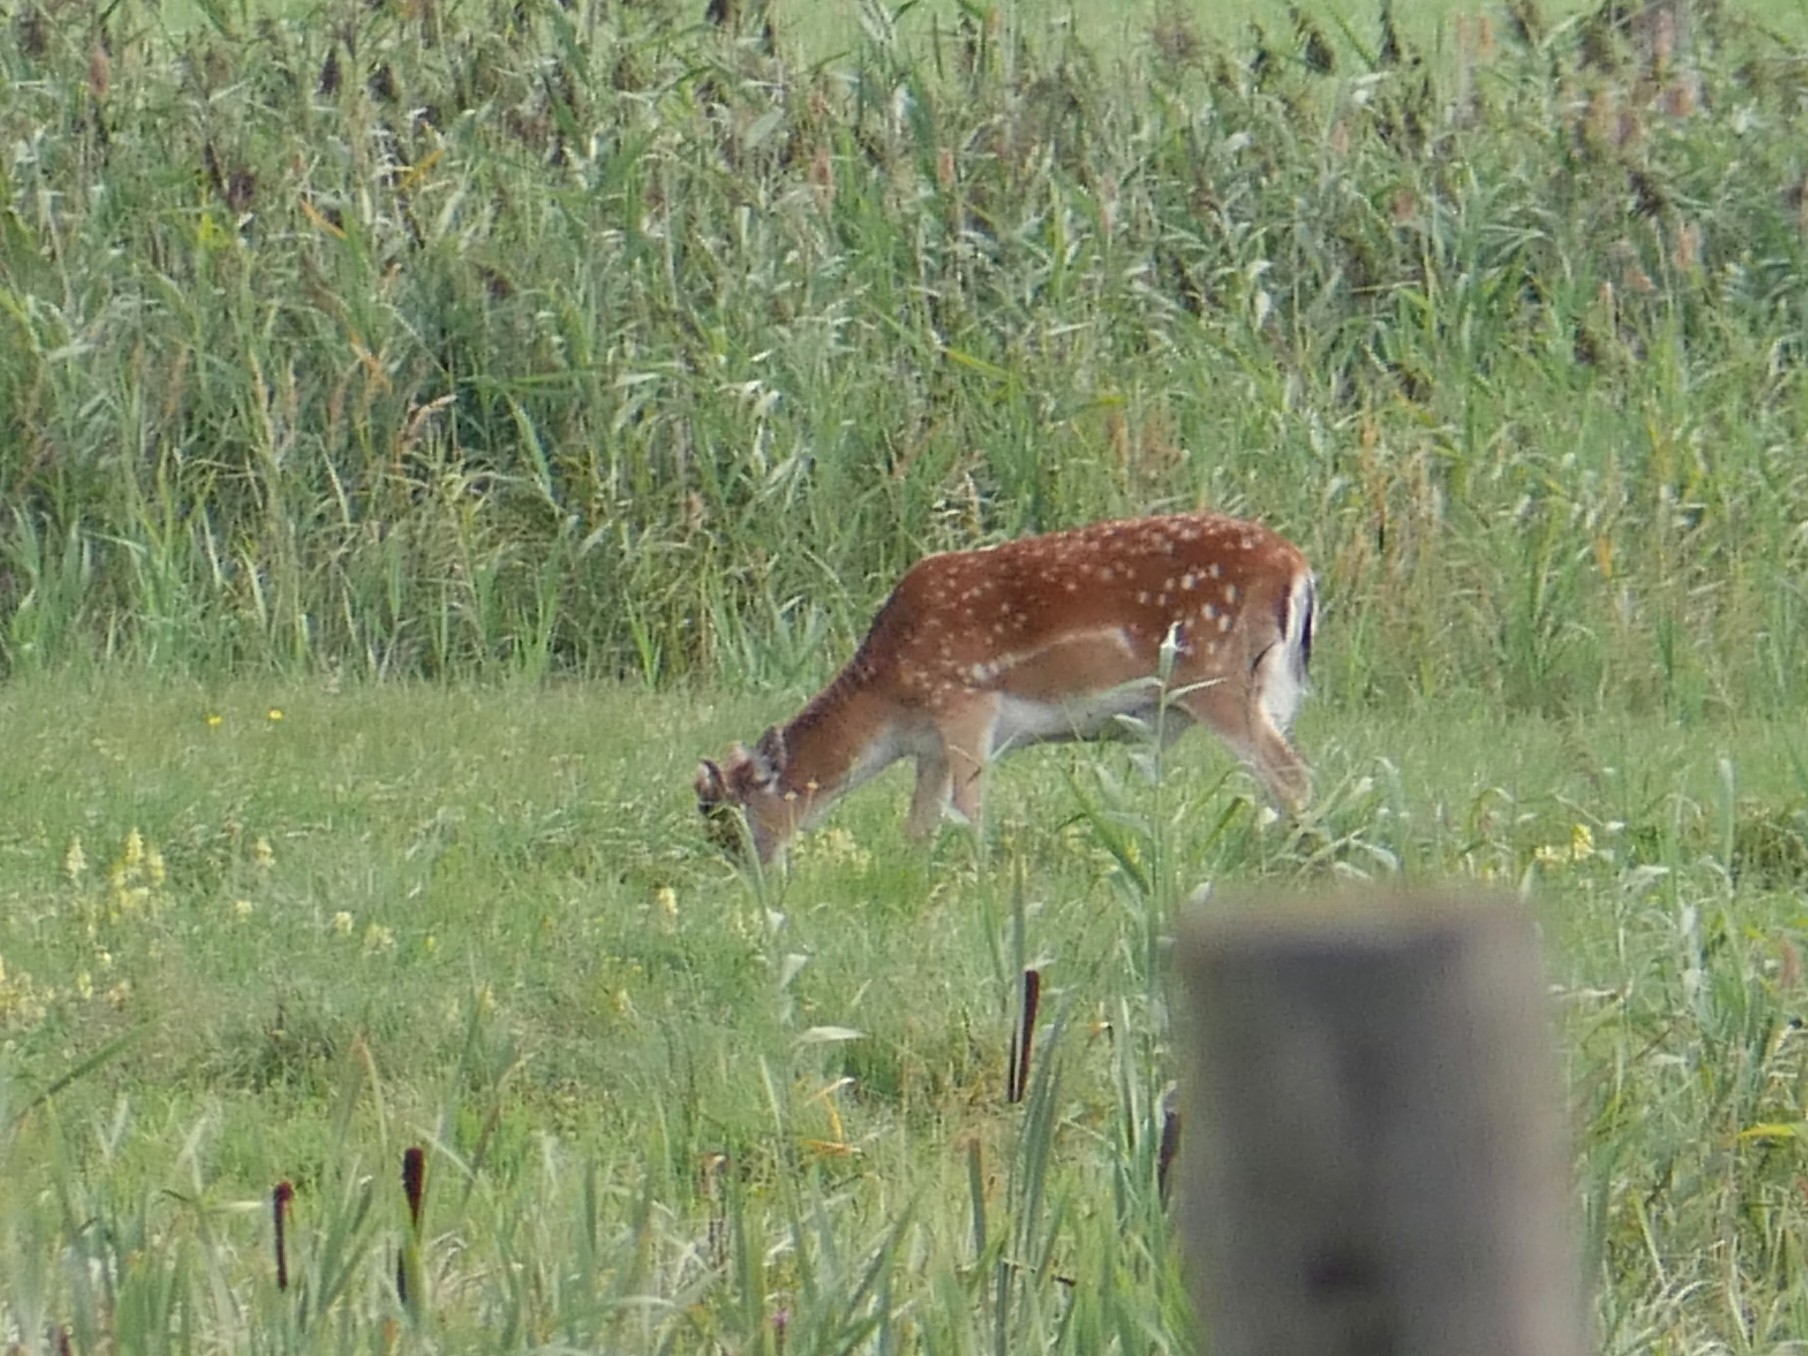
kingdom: Animalia
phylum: Chordata
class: Mammalia
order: Artiodactyla
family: Cervidae
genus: Dama
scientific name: Dama dama
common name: Fallow deer
